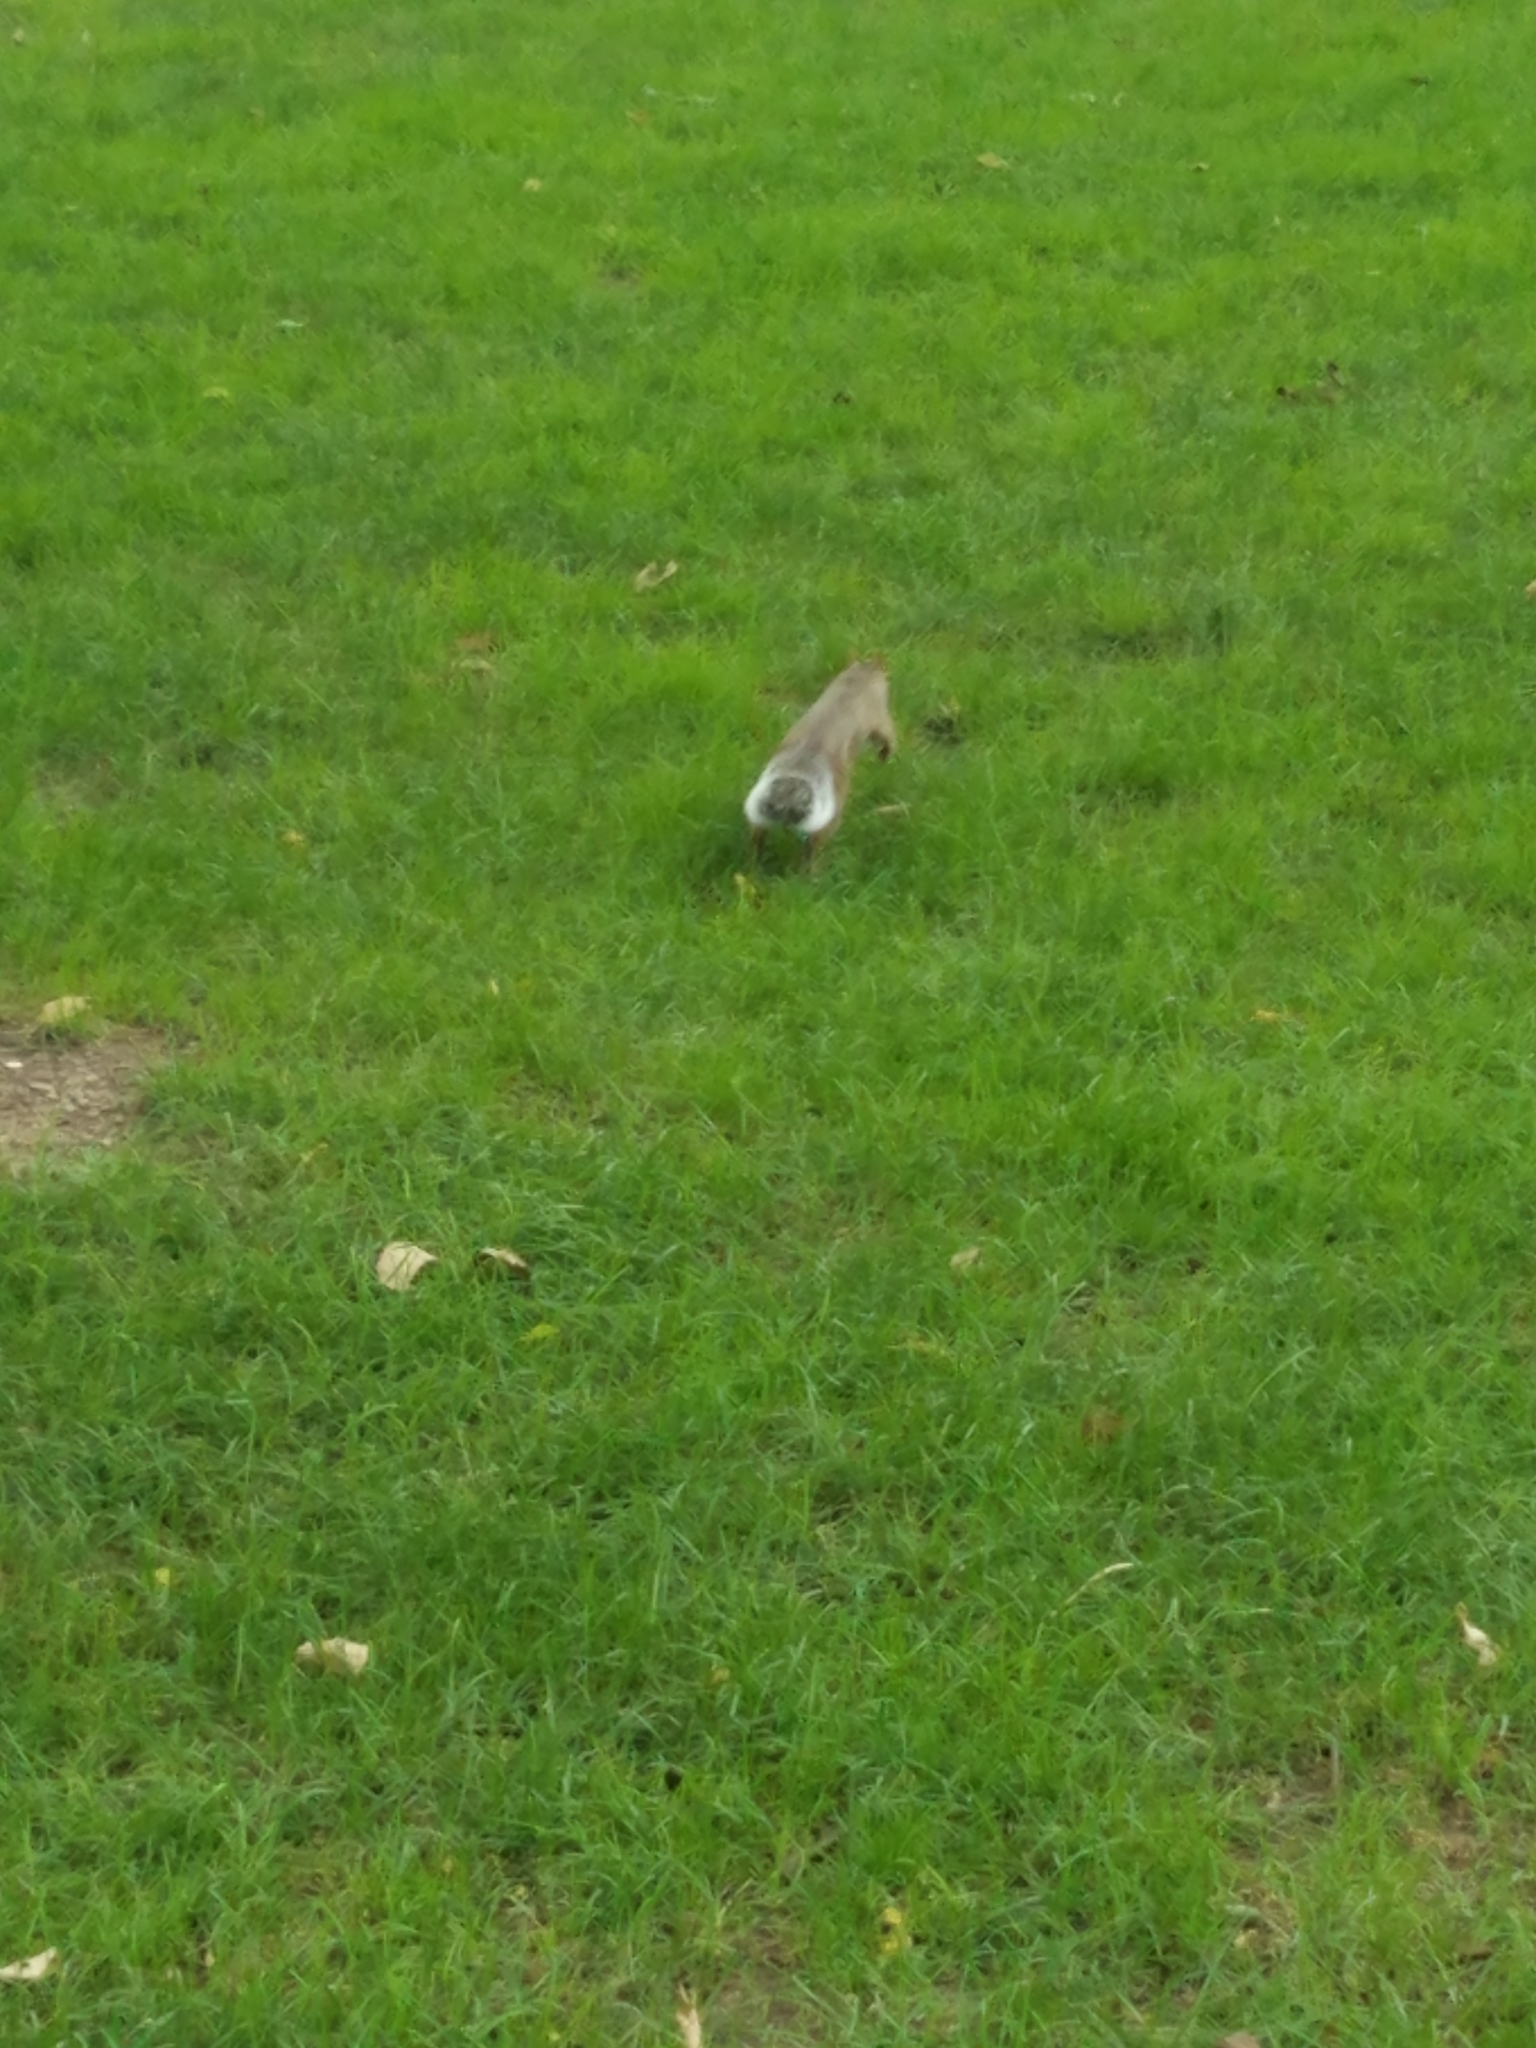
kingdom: Animalia
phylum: Chordata
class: Mammalia
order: Rodentia
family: Sciuridae
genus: Sciurus
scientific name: Sciurus carolinensis
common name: Eastern gray squirrel
